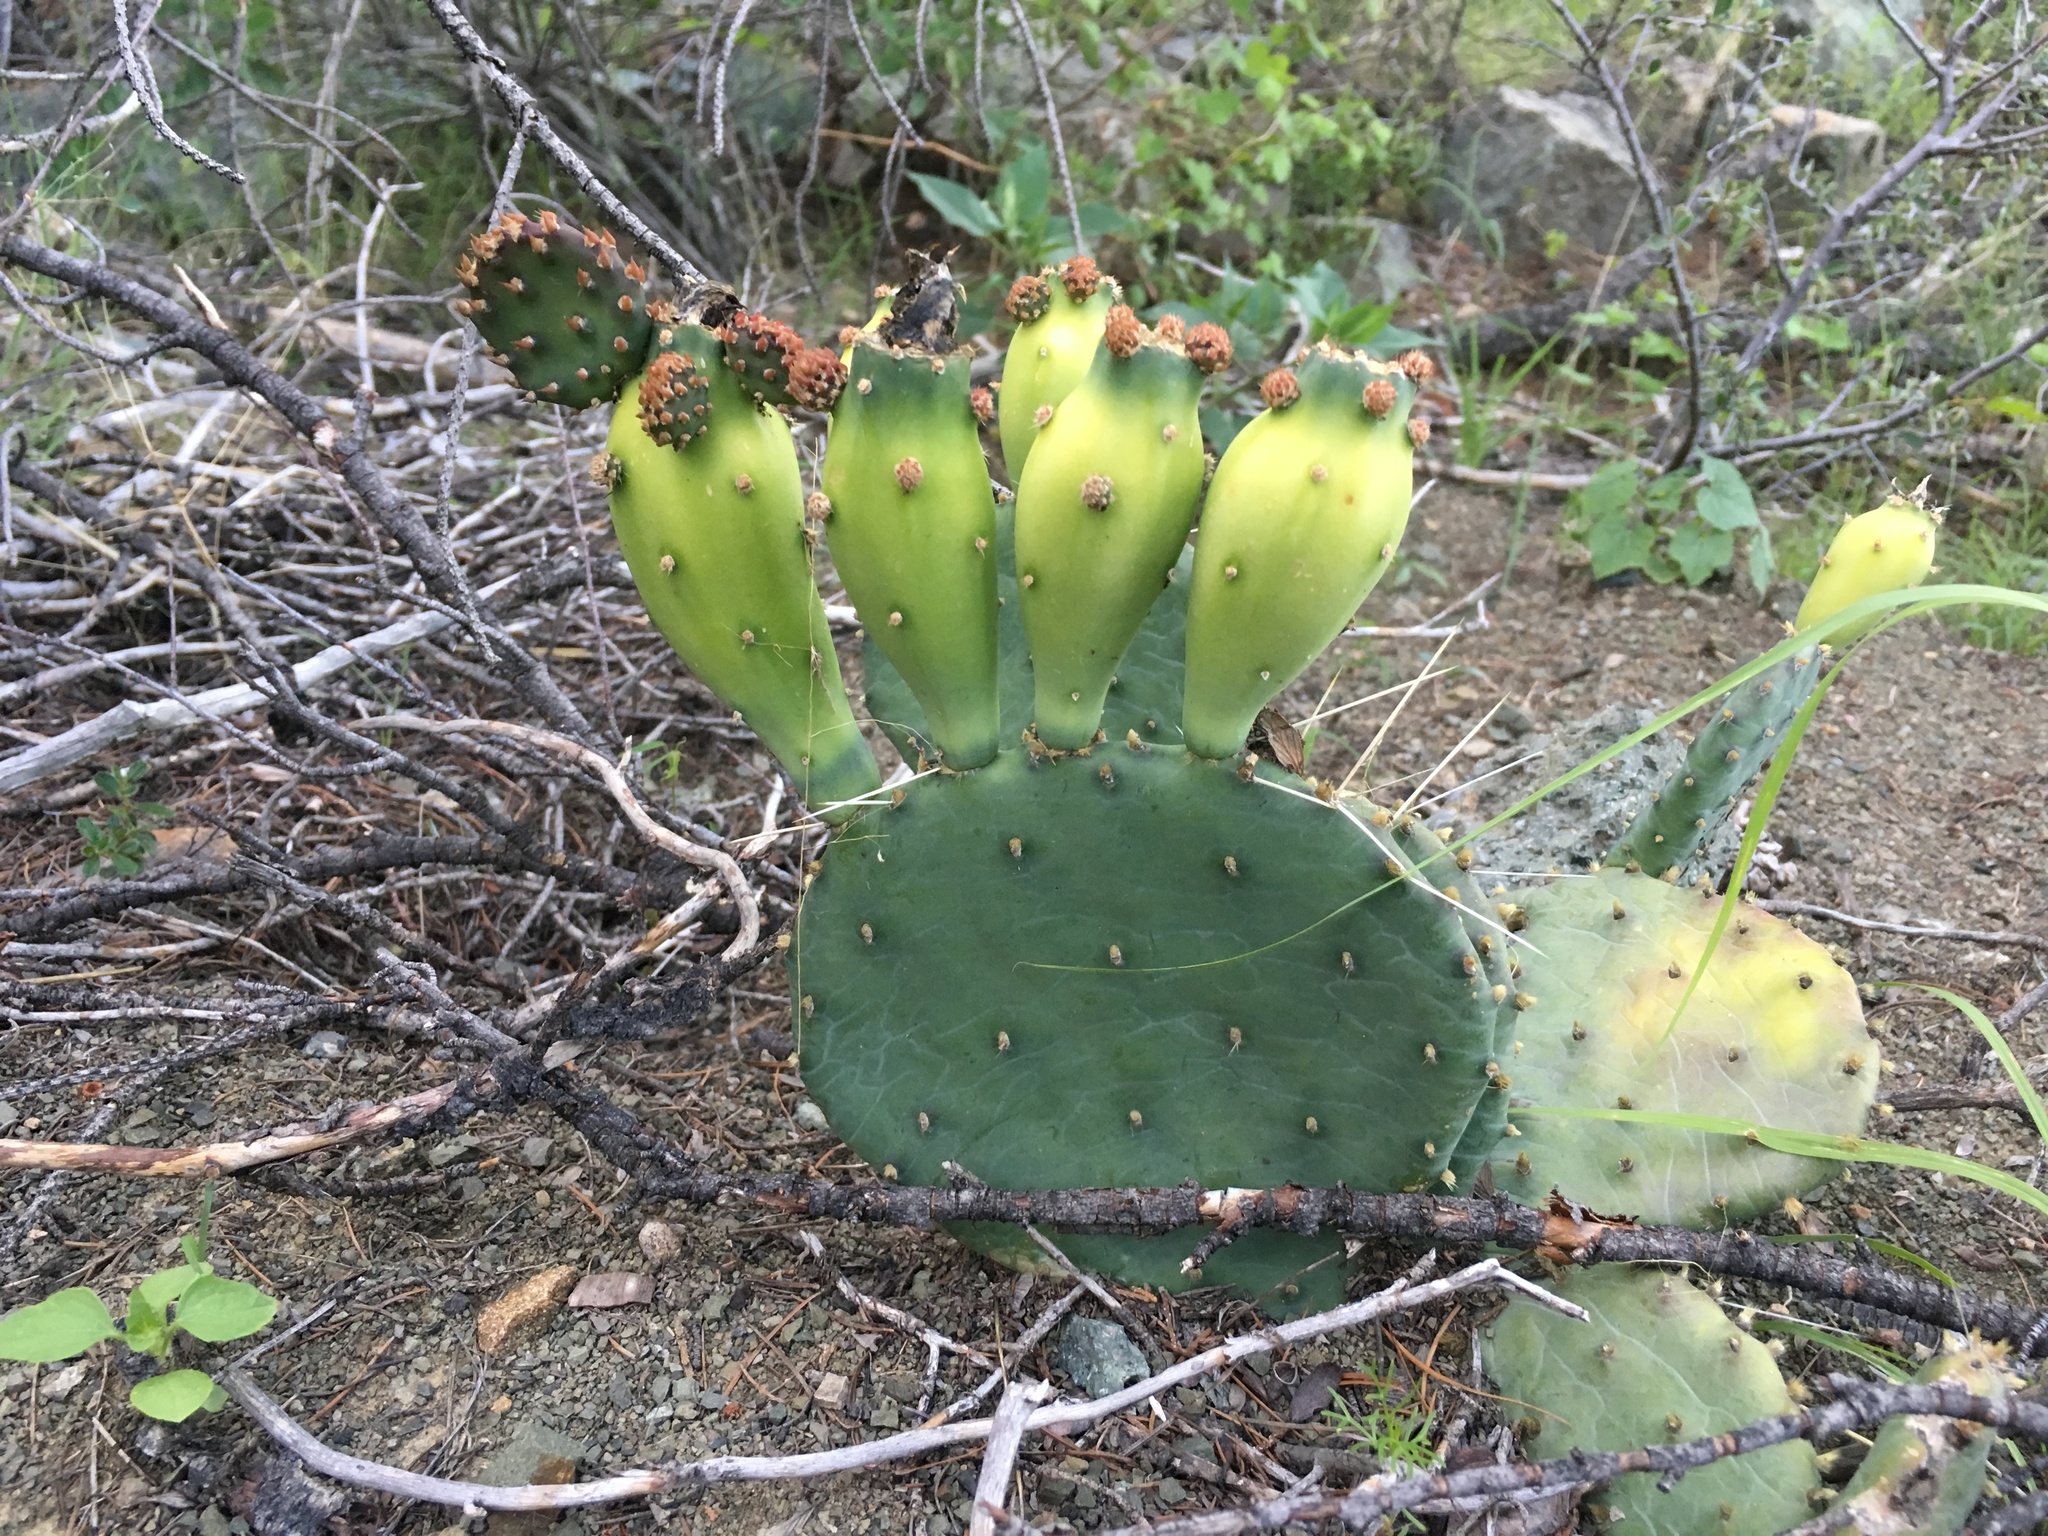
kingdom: Plantae
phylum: Tracheophyta
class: Magnoliopsida
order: Caryophyllales
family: Cactaceae
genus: Opuntia
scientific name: Opuntia pottsii
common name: Potts's prickly-pear
